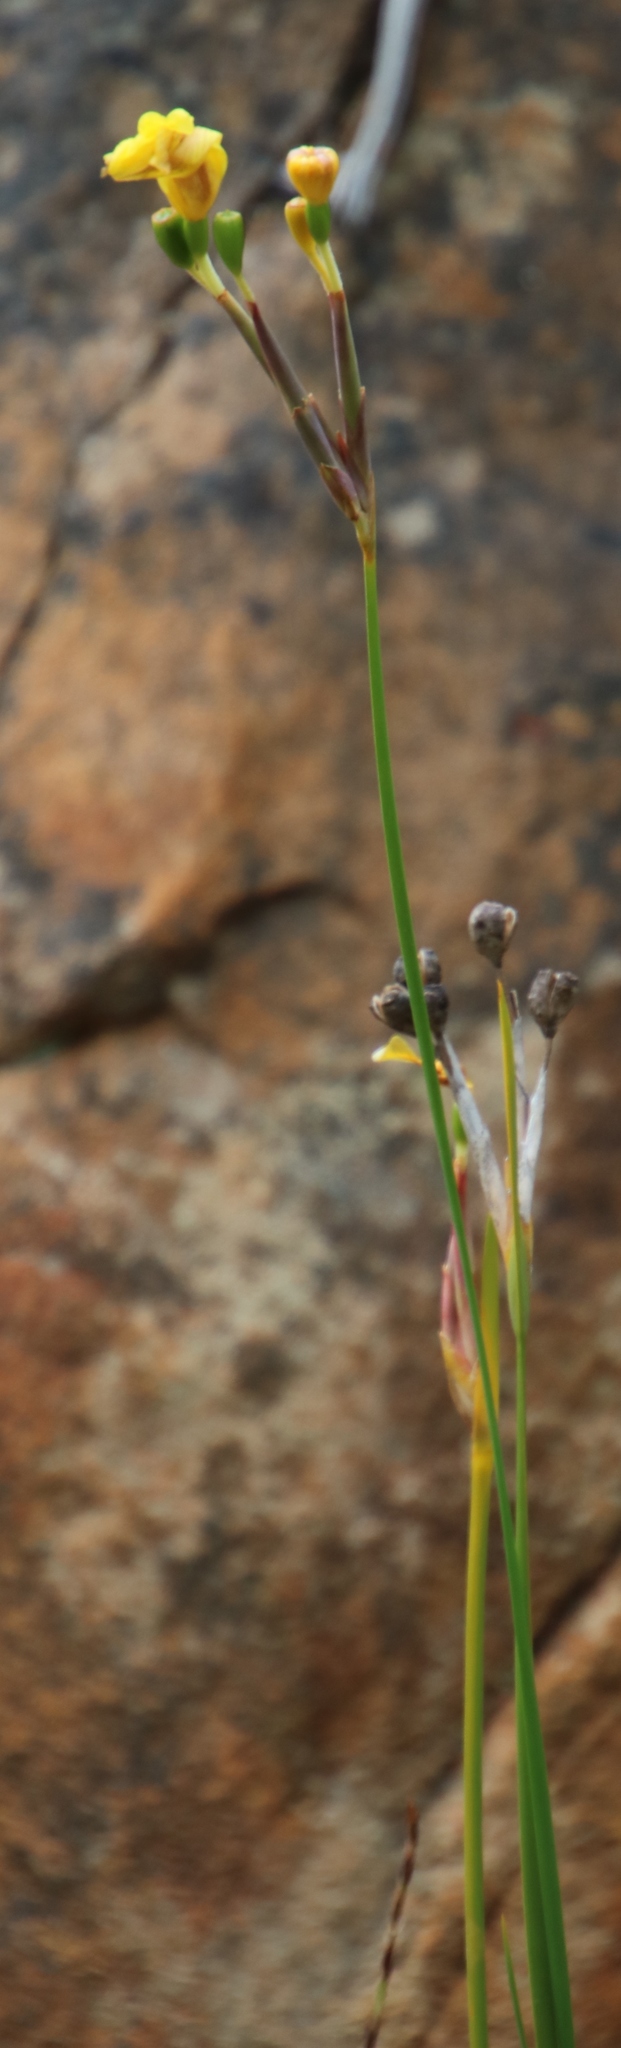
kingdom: Plantae
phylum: Tracheophyta
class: Liliopsida
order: Asparagales
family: Iridaceae
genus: Bobartia
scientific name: Bobartia gladiata
